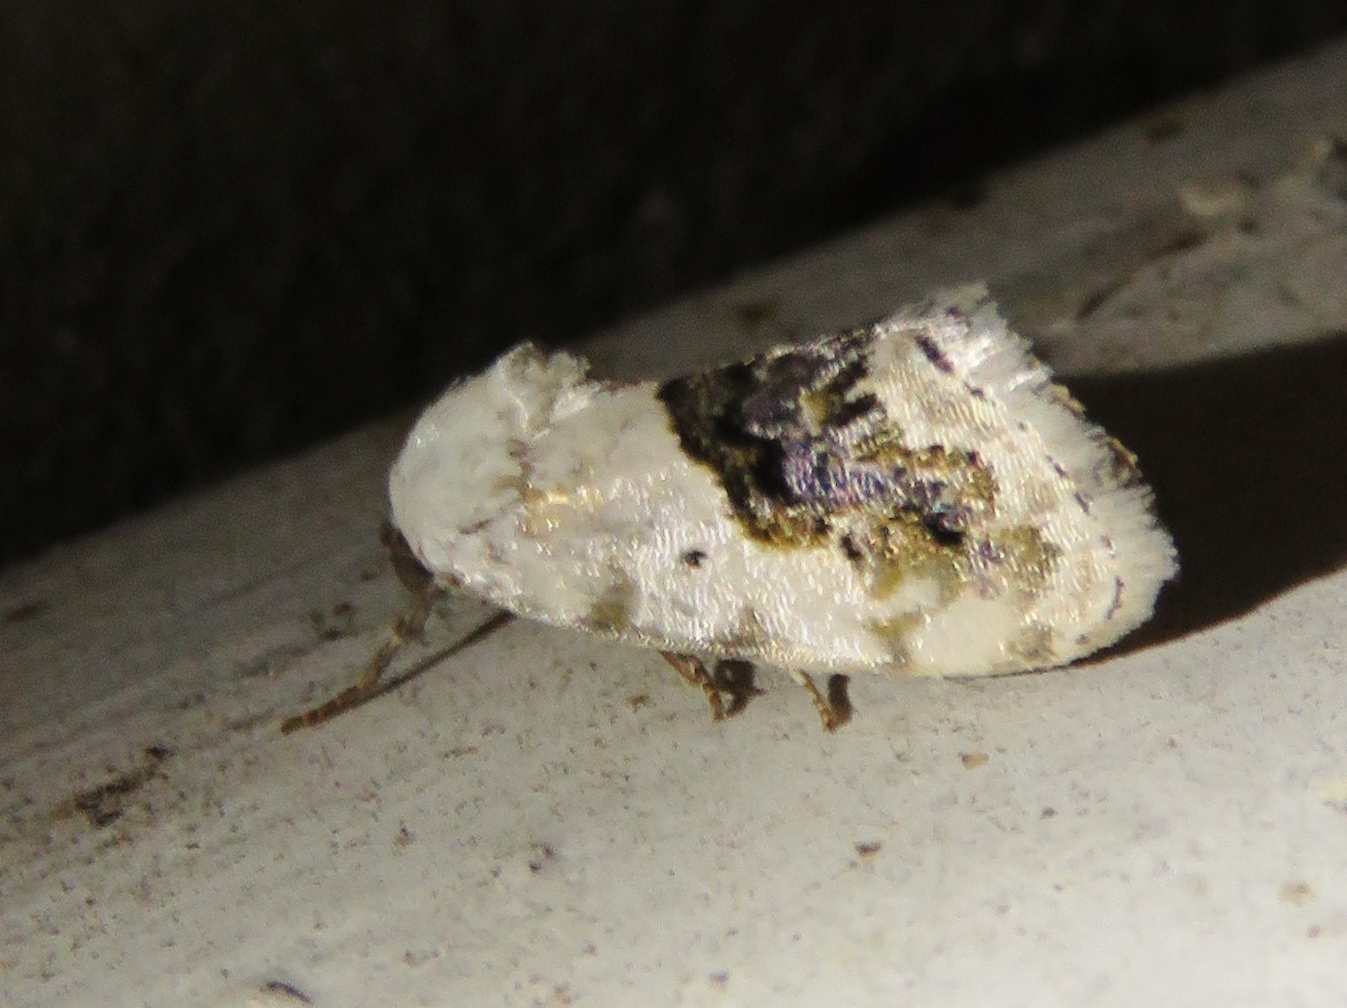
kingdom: Animalia
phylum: Arthropoda
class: Insecta
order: Lepidoptera
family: Noctuidae
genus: Acontia
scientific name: Acontia erastrioides
